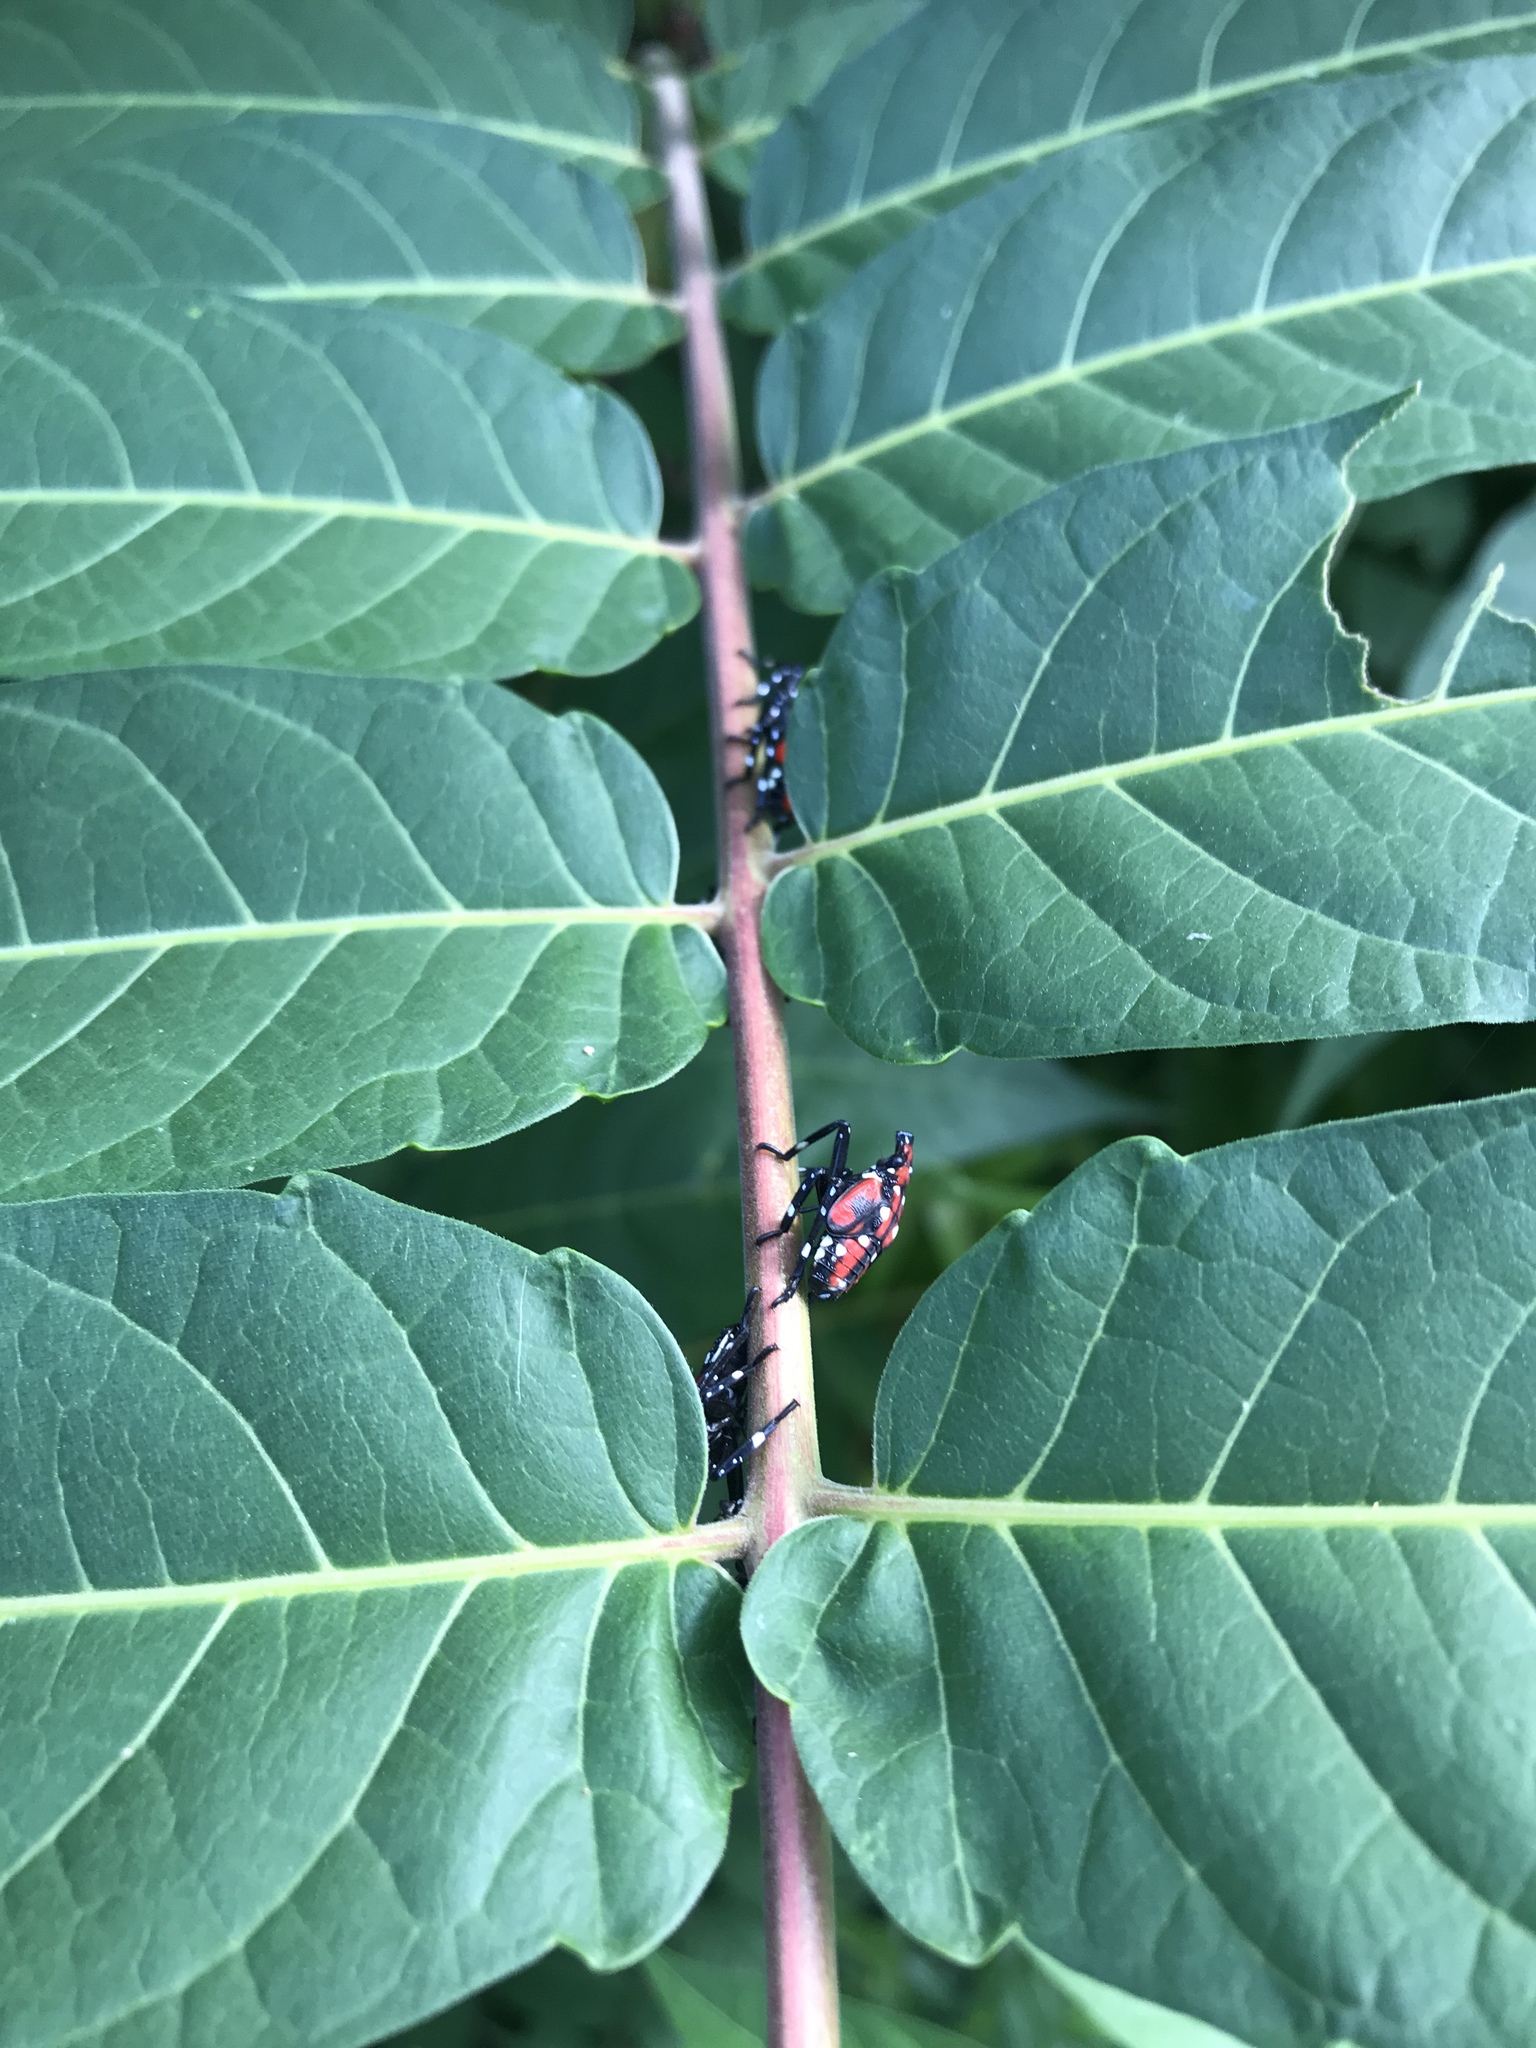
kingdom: Plantae
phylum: Tracheophyta
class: Magnoliopsida
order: Sapindales
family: Simaroubaceae
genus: Ailanthus
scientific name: Ailanthus altissima
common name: Tree-of-heaven
